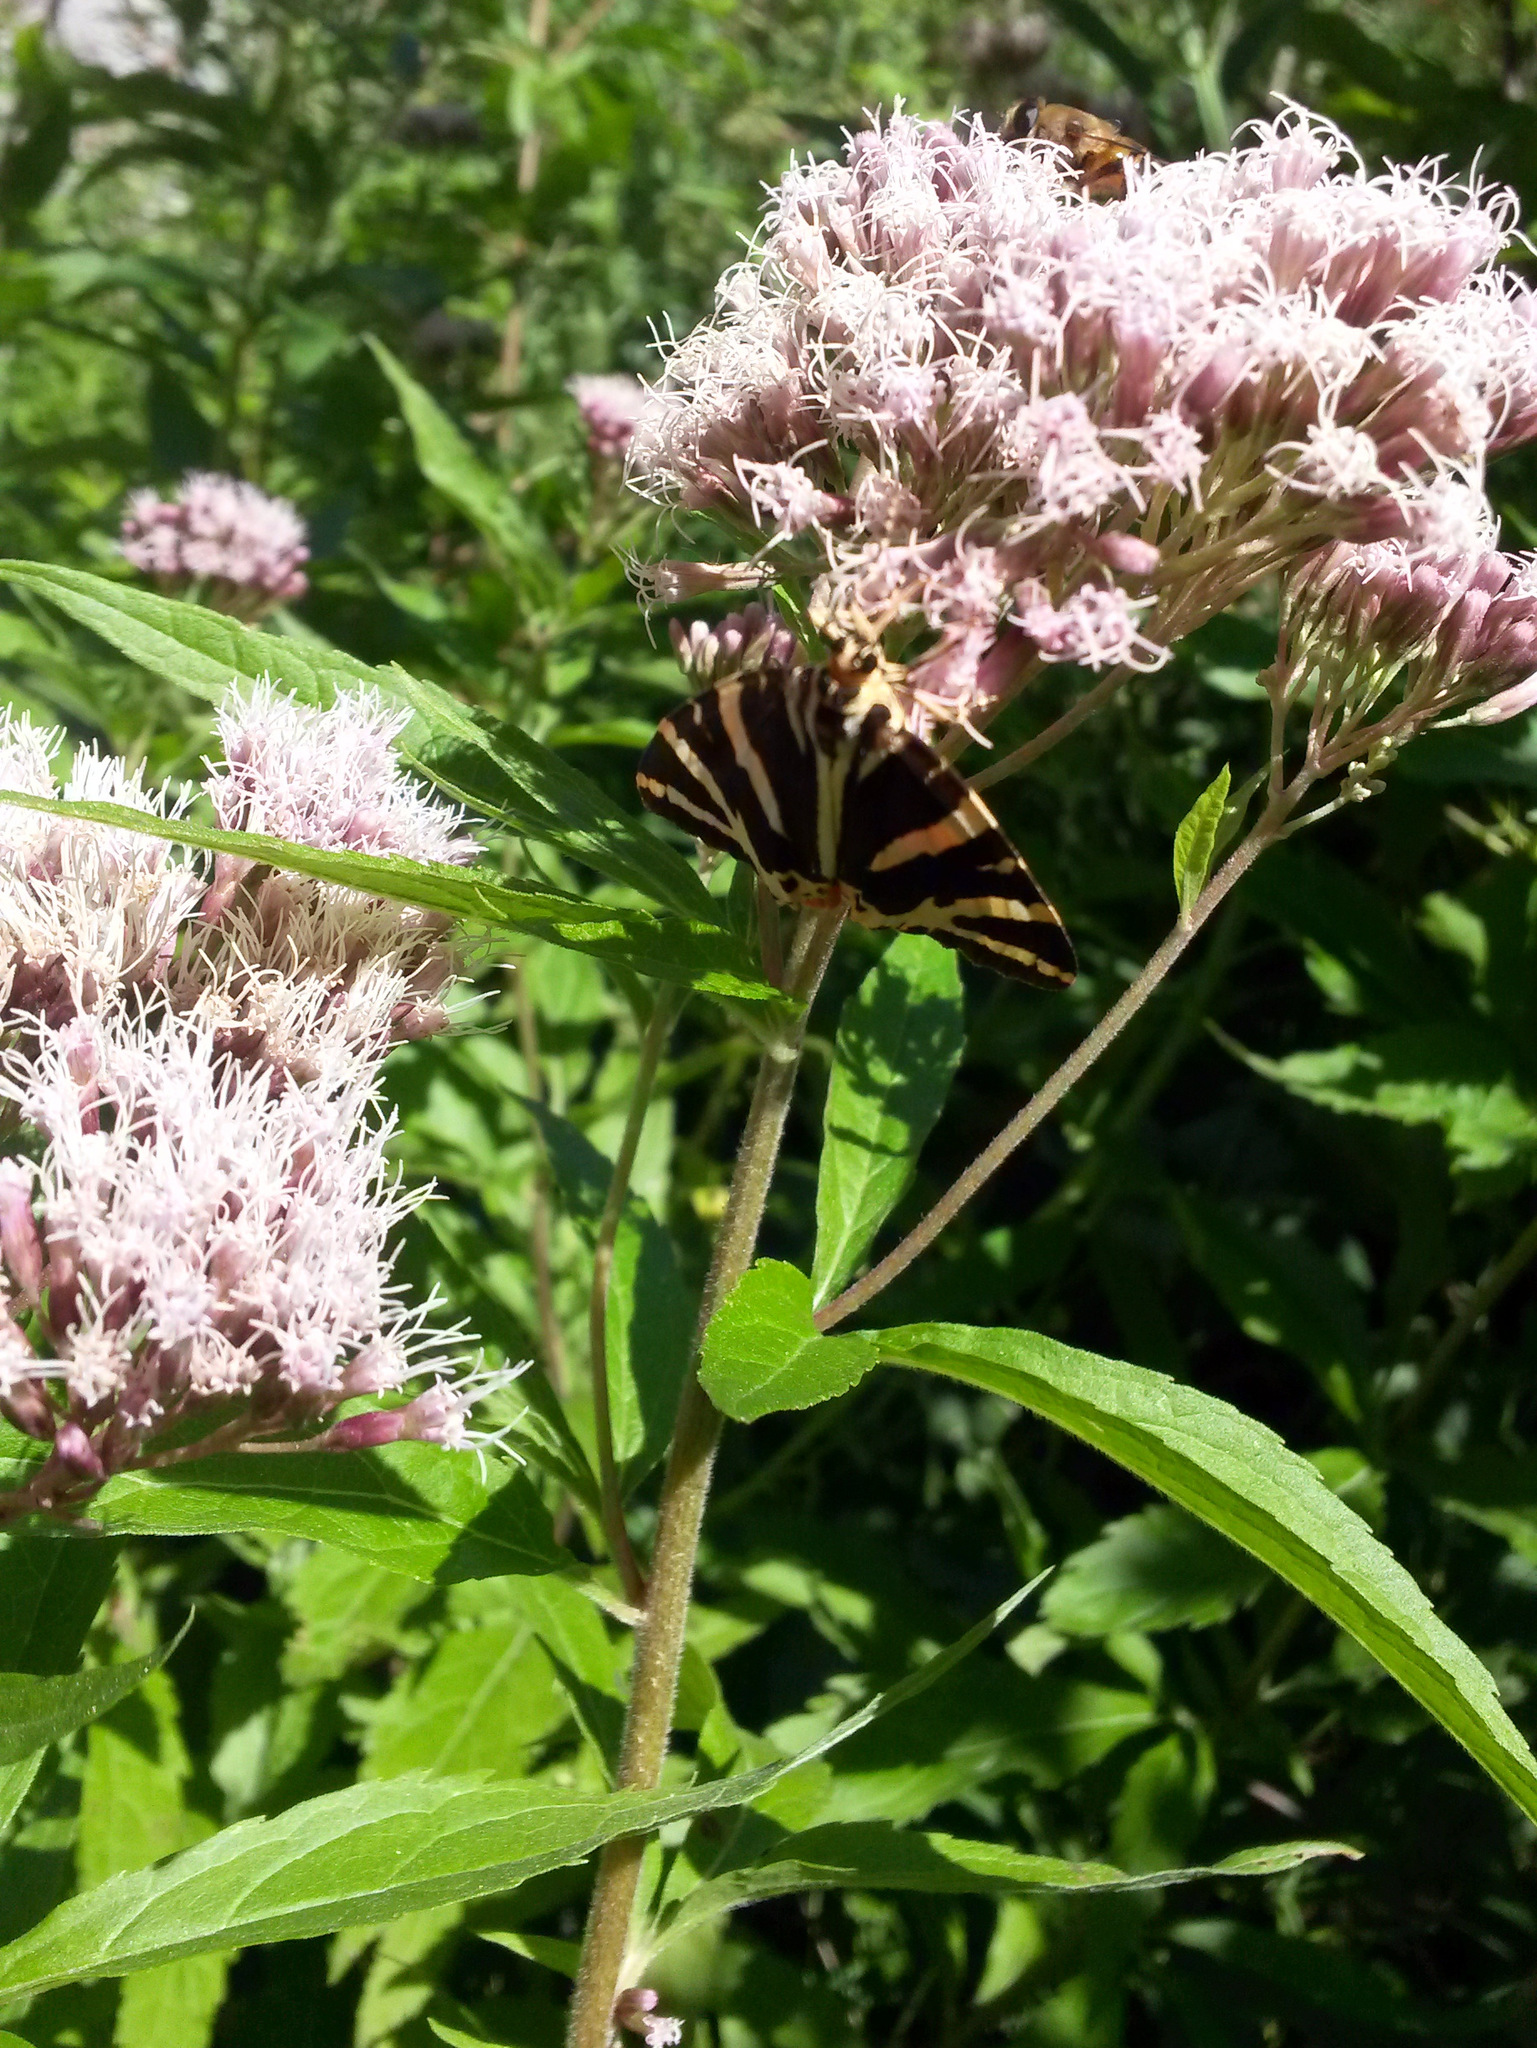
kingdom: Plantae
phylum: Tracheophyta
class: Magnoliopsida
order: Asterales
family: Asteraceae
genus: Eupatorium
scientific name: Eupatorium cannabinum
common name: Hemp-agrimony
